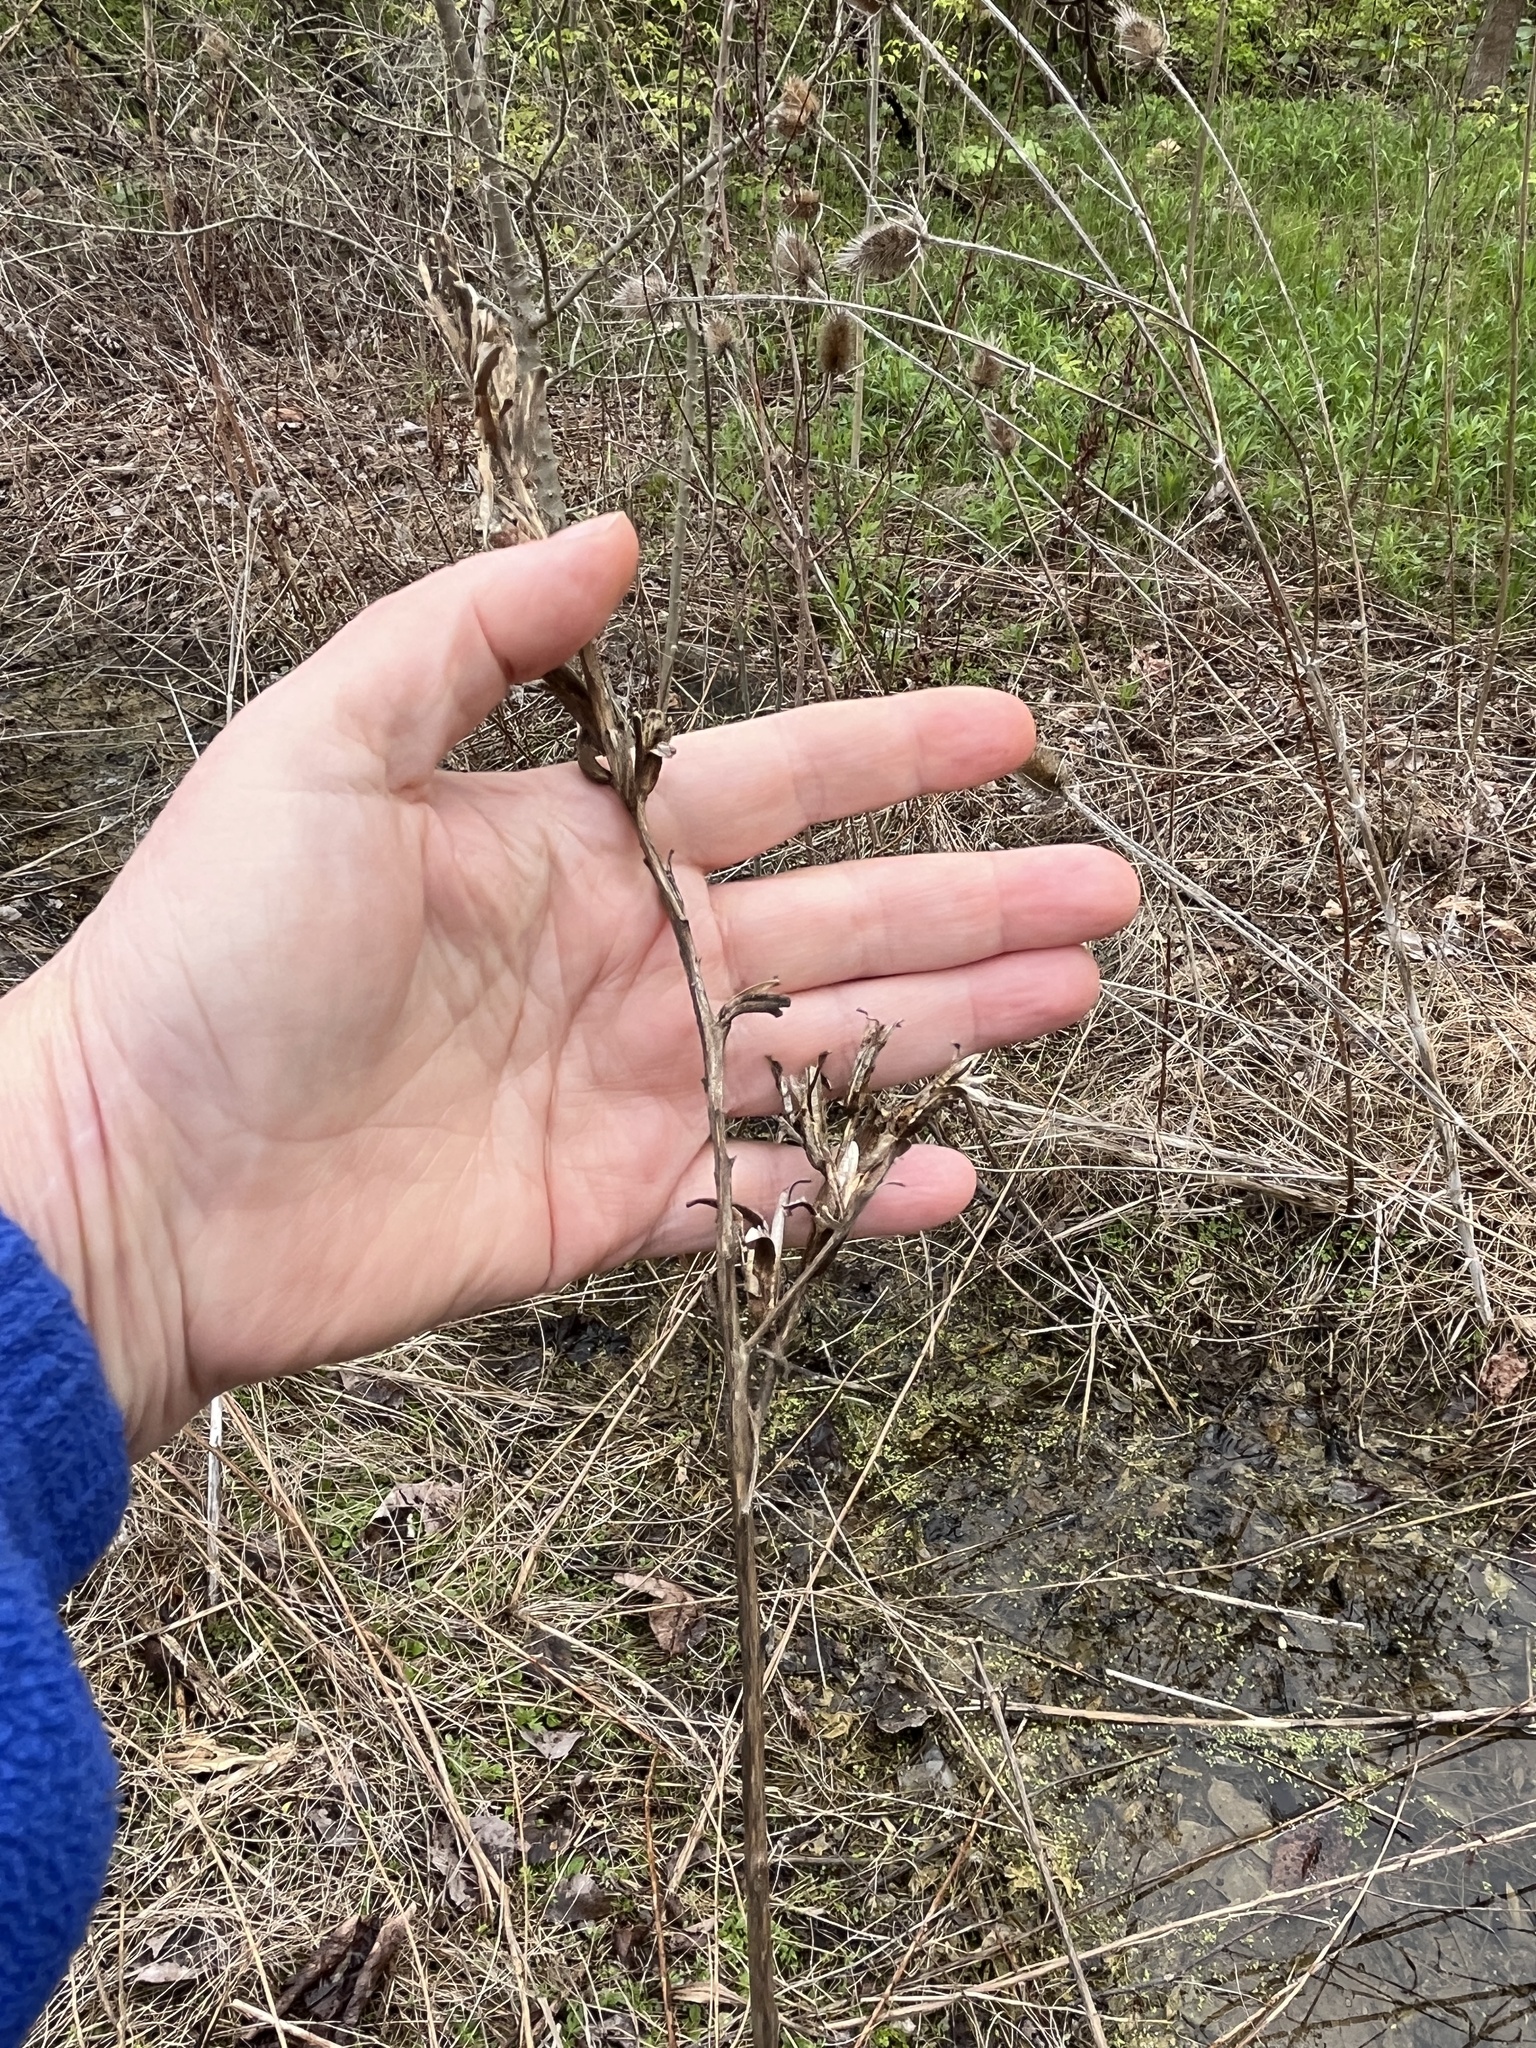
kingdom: Plantae
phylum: Tracheophyta
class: Magnoliopsida
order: Myrtales
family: Onagraceae
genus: Oenothera
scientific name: Oenothera biennis
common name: Common evening-primrose
